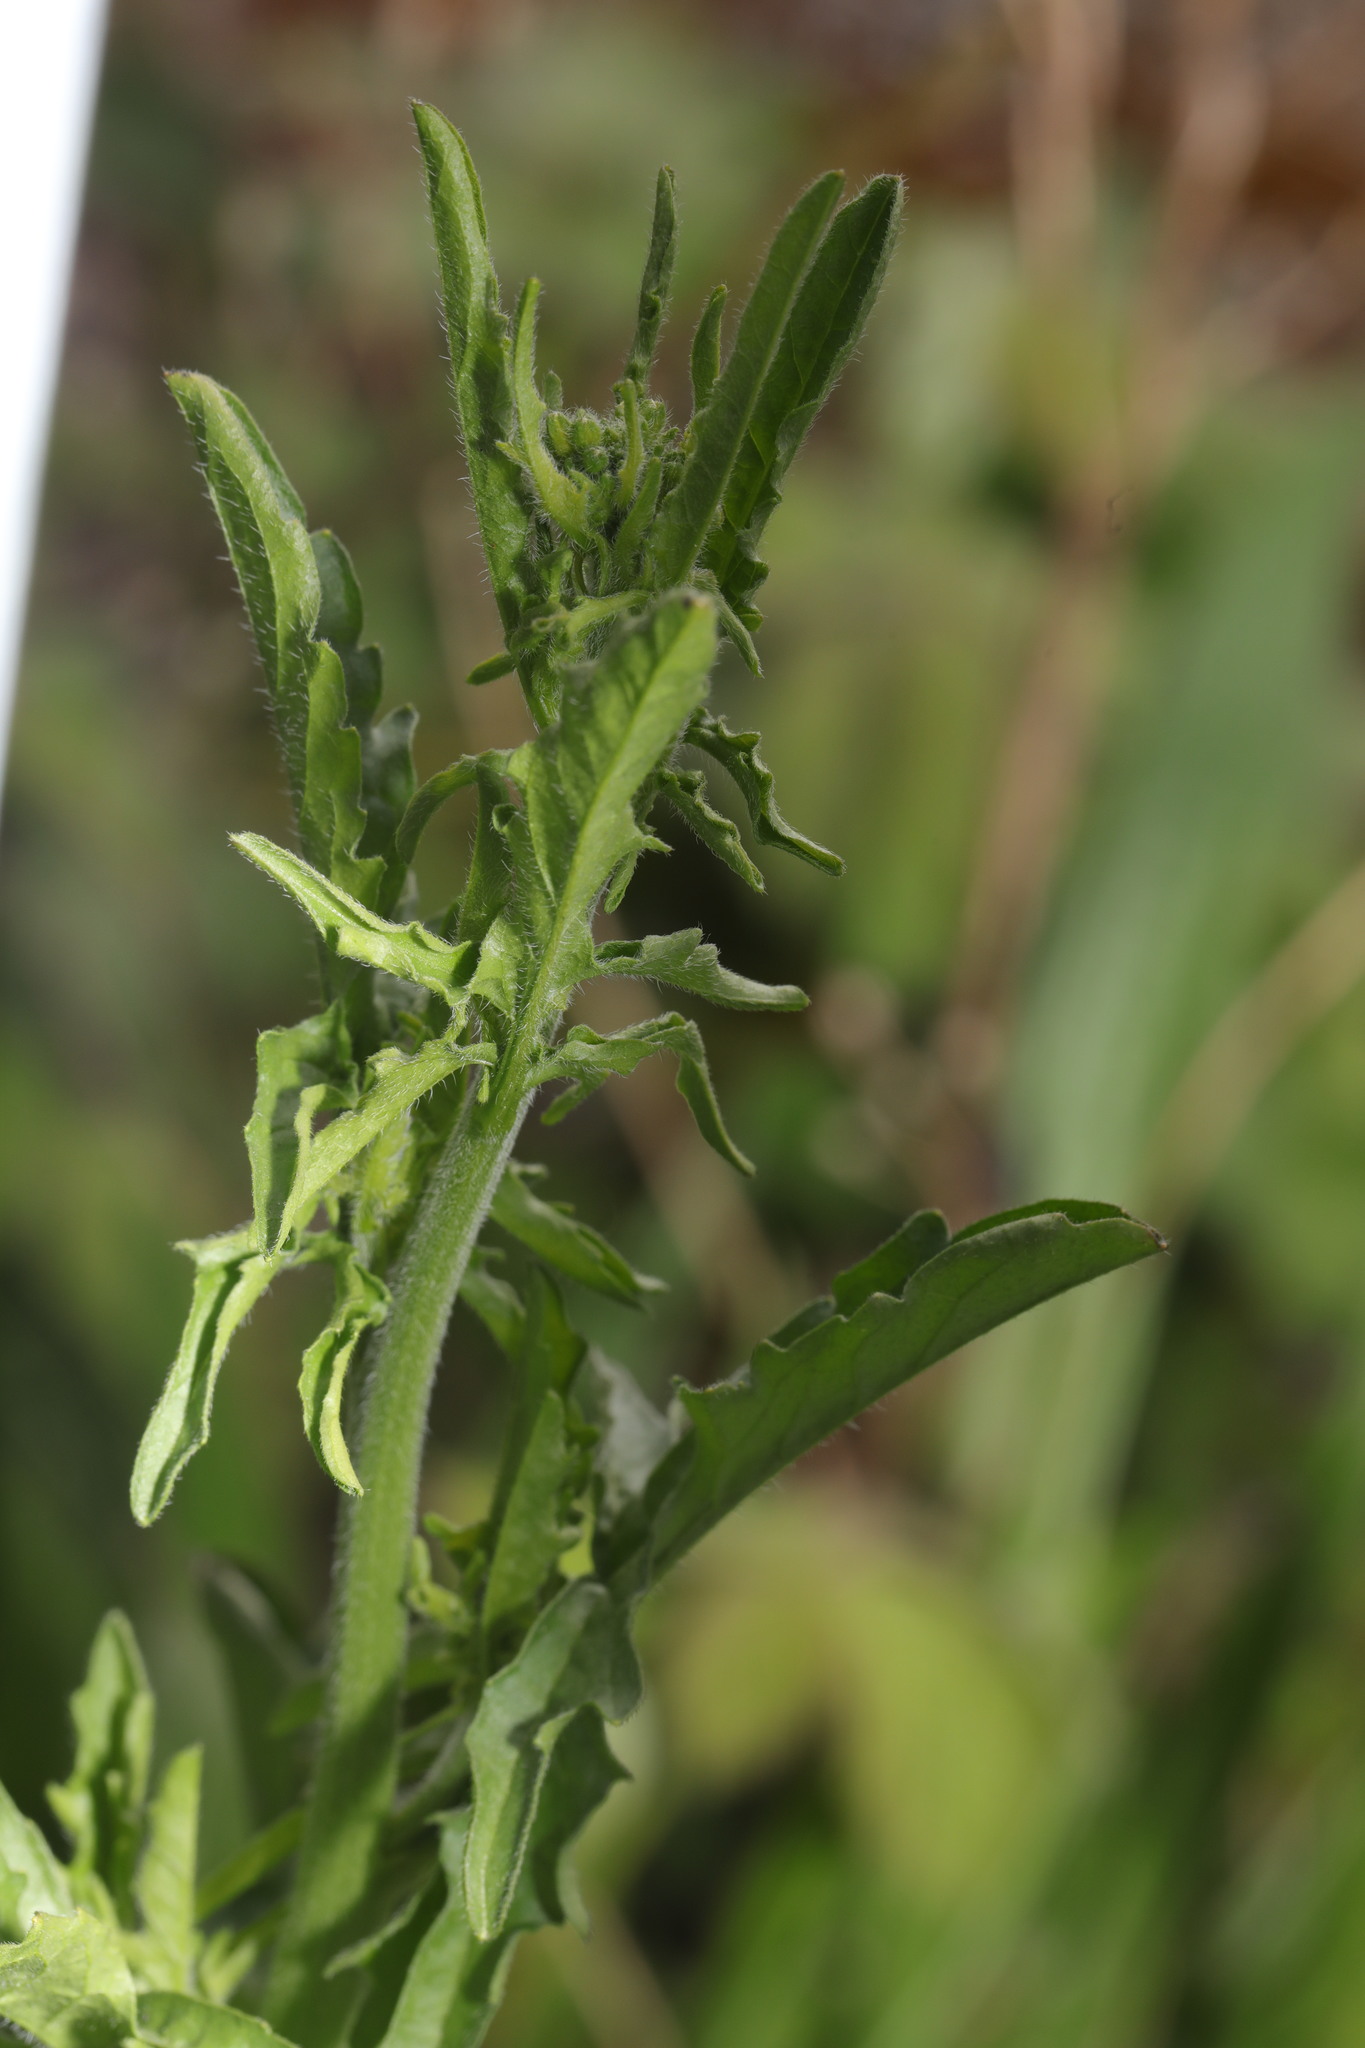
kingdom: Plantae
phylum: Tracheophyta
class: Magnoliopsida
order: Brassicales
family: Brassicaceae
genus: Sisymbrium
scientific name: Sisymbrium officinale
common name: Hedge mustard
